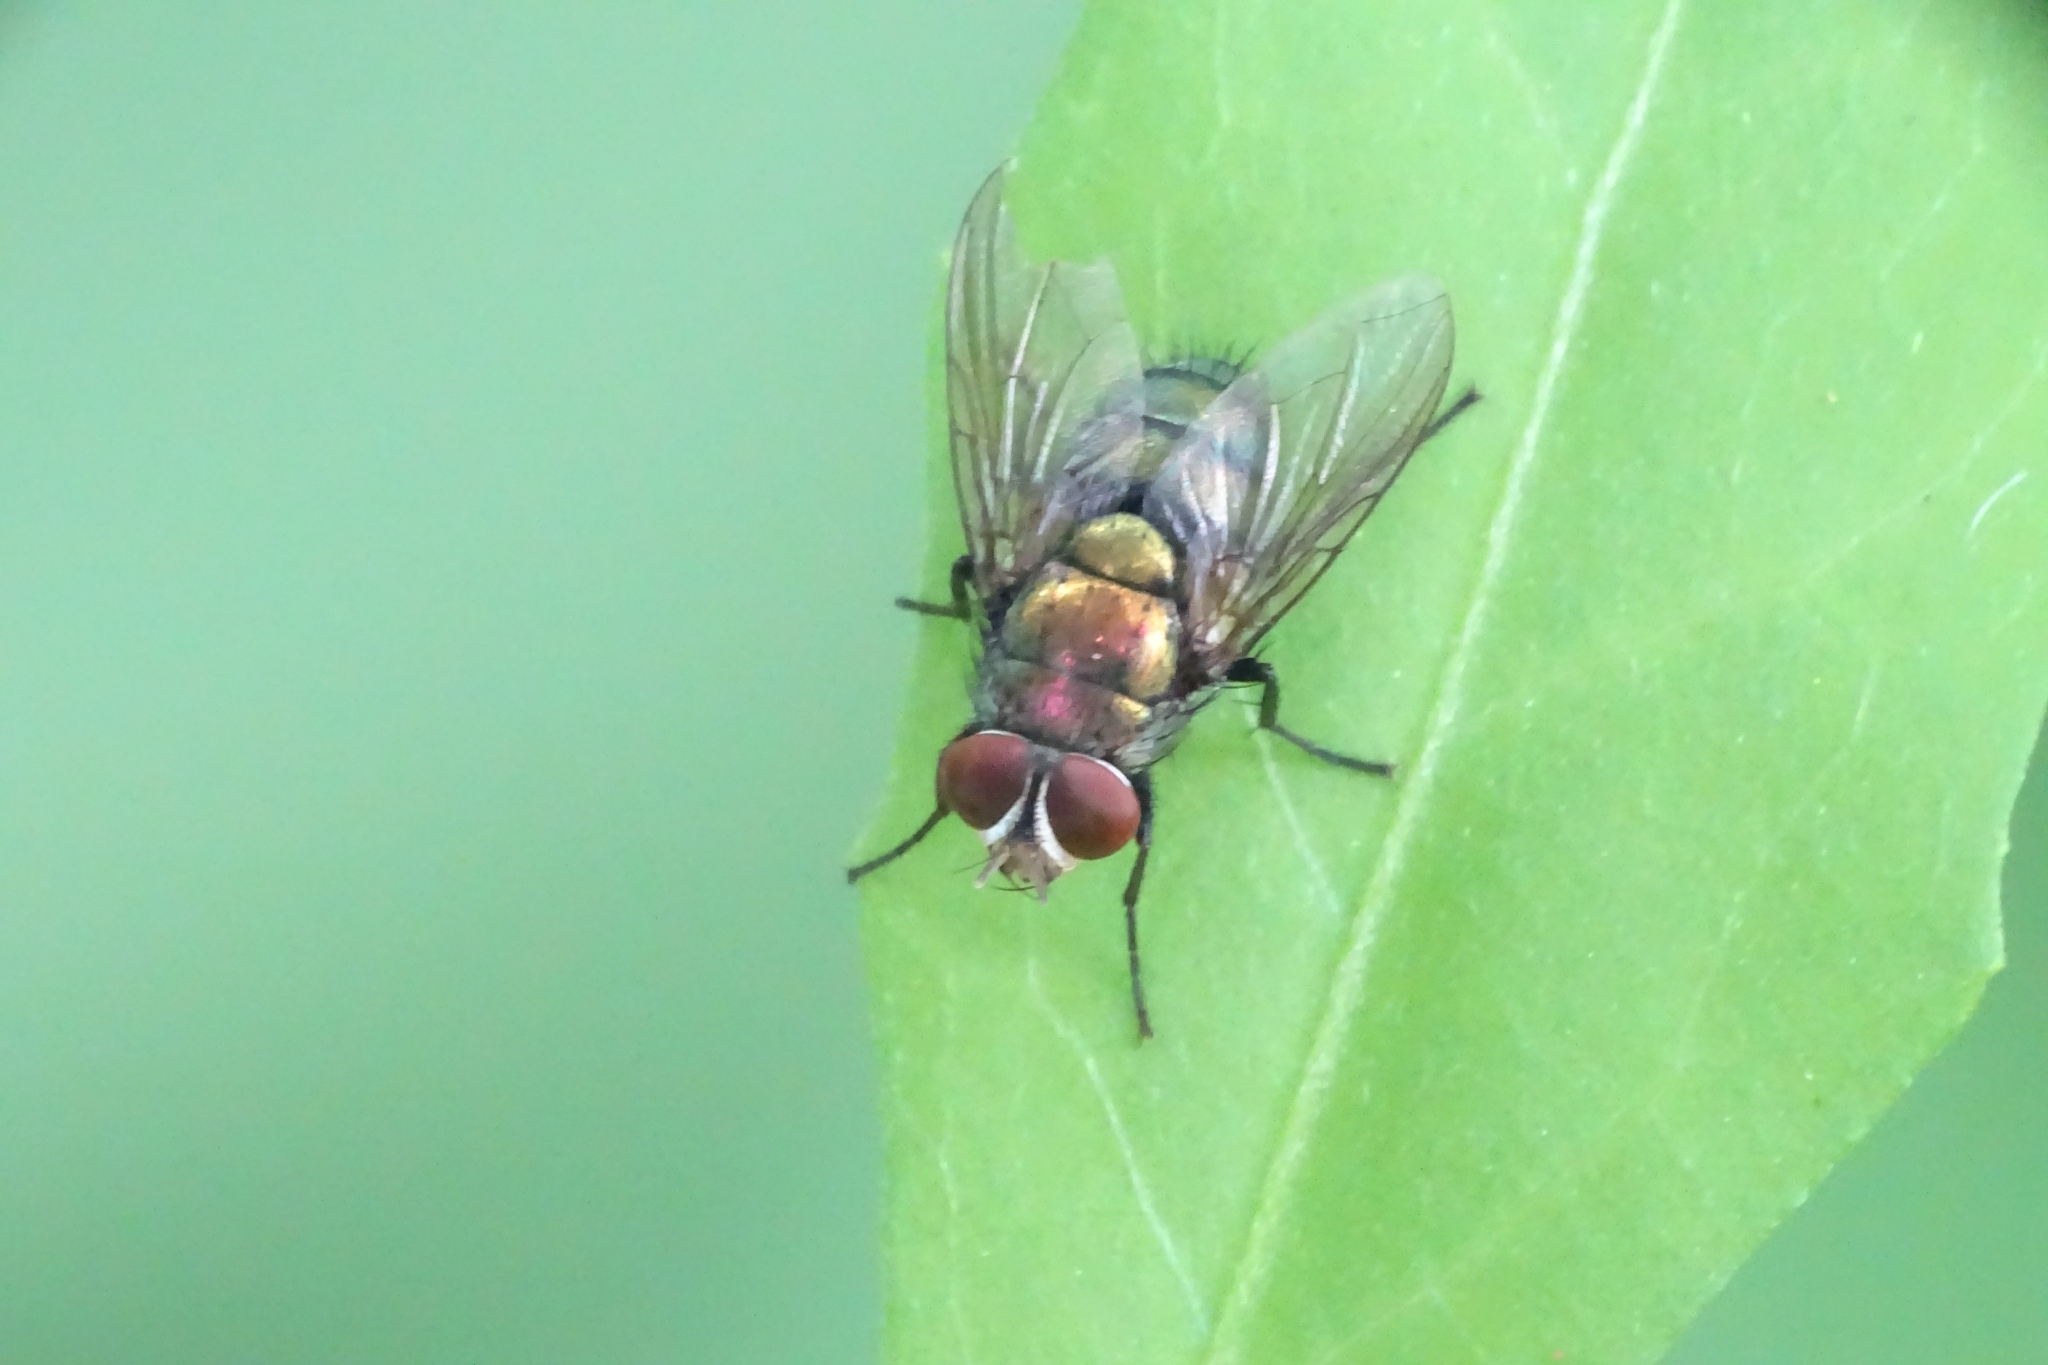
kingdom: Animalia
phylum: Arthropoda
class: Insecta
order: Diptera
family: Calliphoridae
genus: Hemipyrellia
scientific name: Hemipyrellia ligurriens
